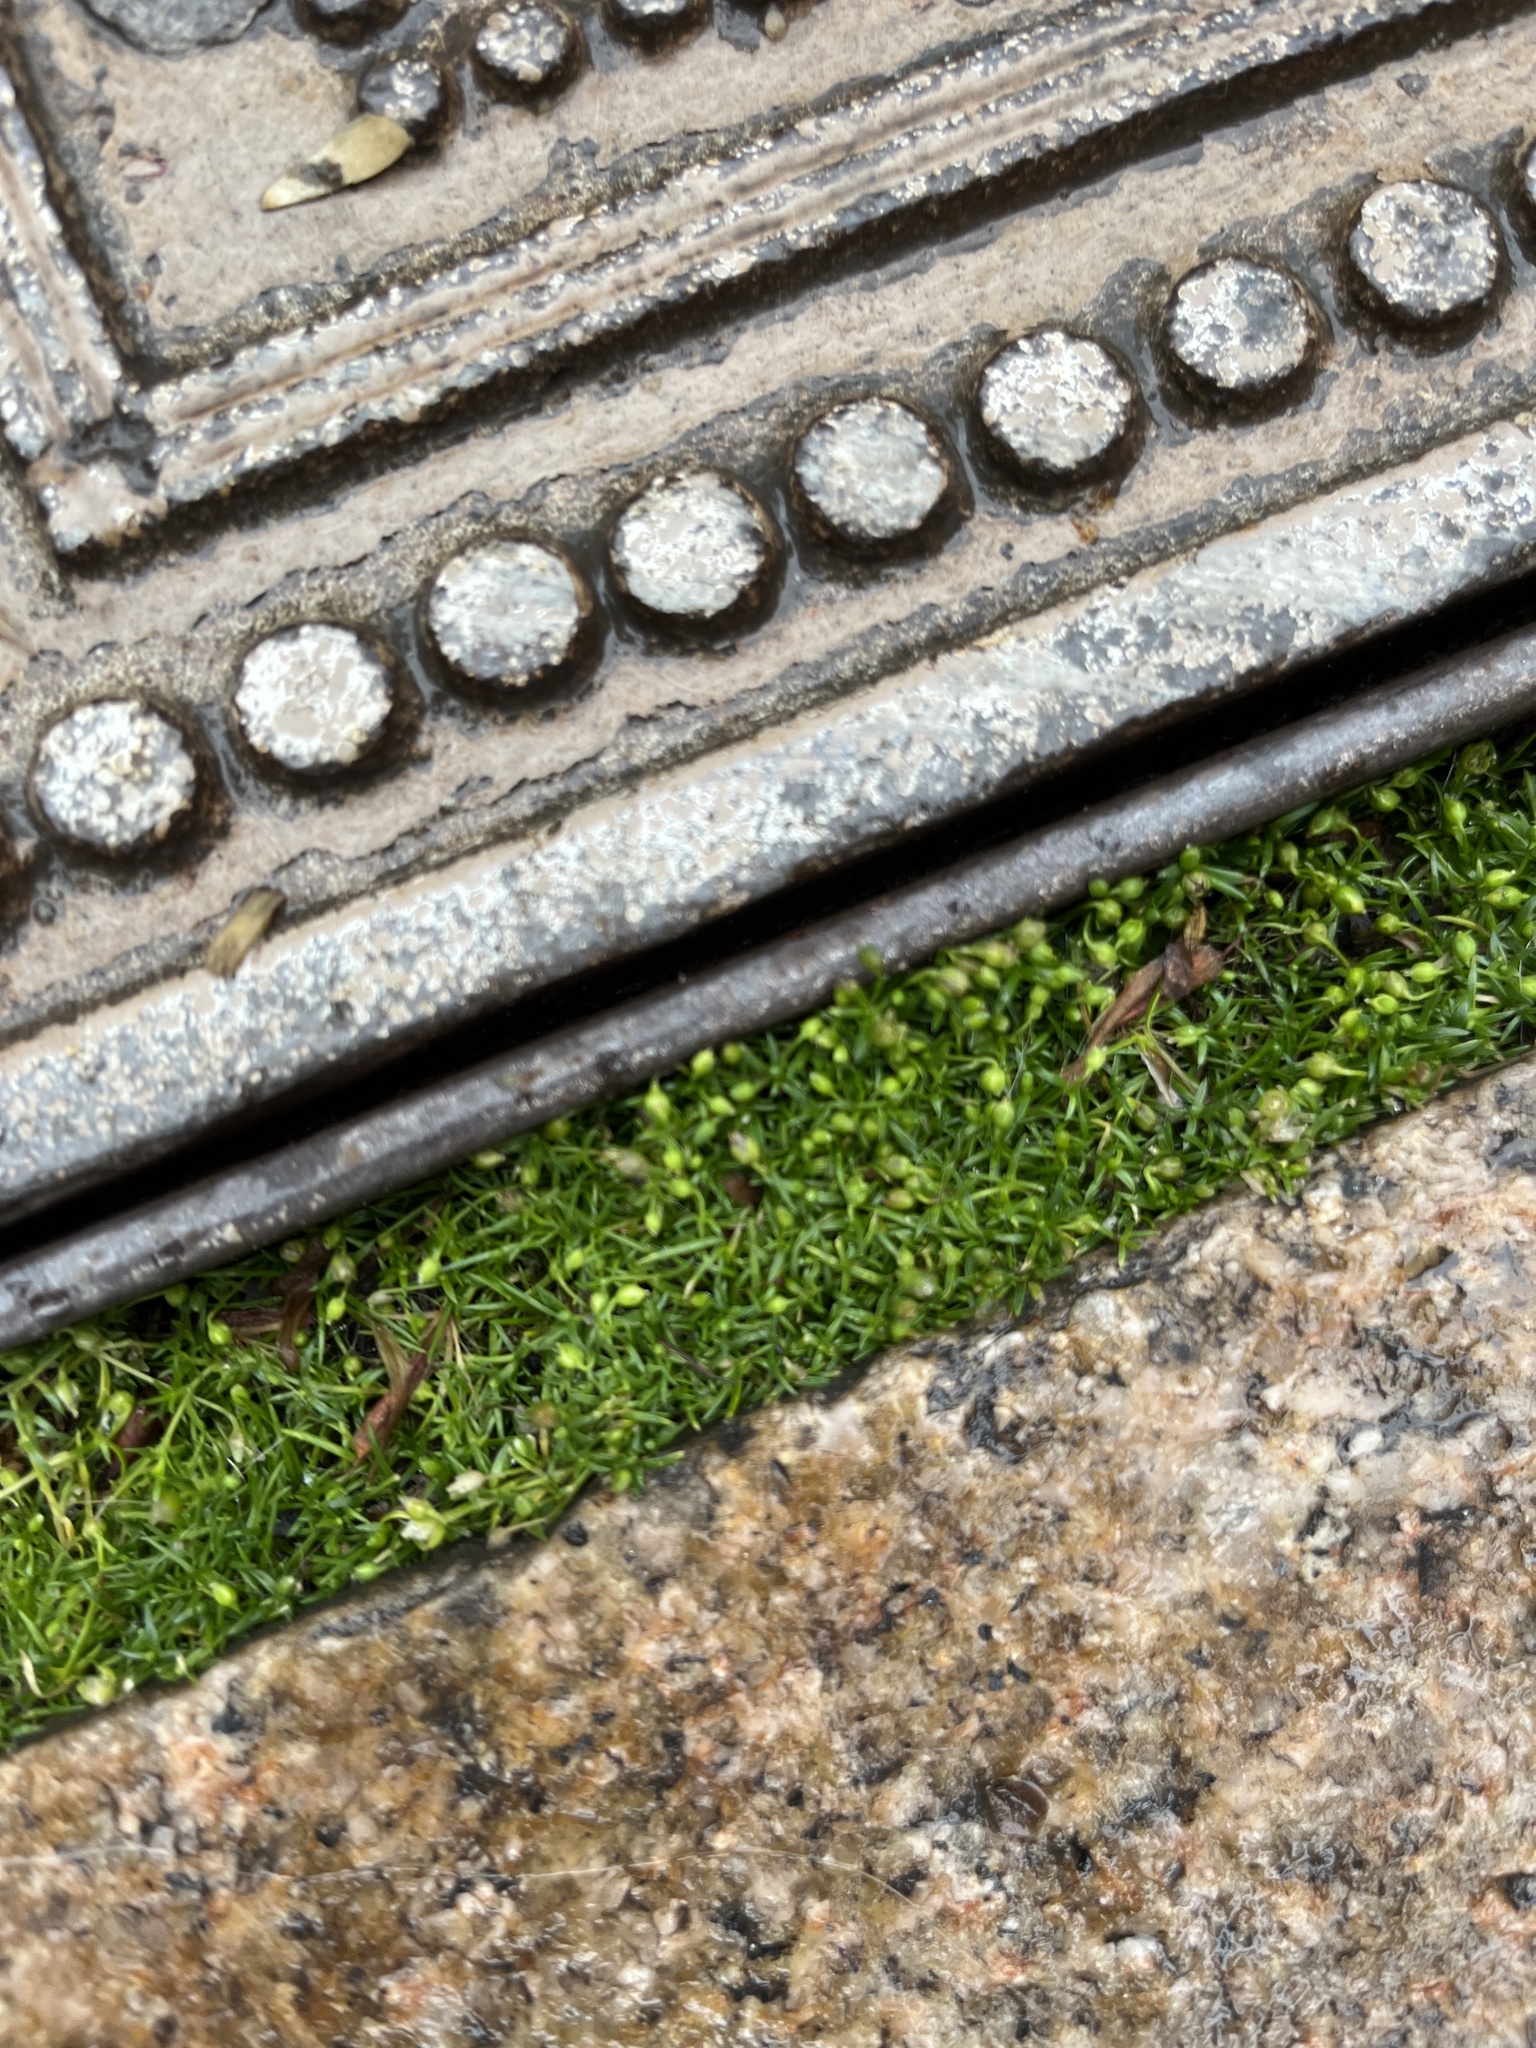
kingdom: Plantae
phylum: Tracheophyta
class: Magnoliopsida
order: Caryophyllales
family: Caryophyllaceae
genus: Sagina
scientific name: Sagina procumbens
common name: Procumbent pearlwort
